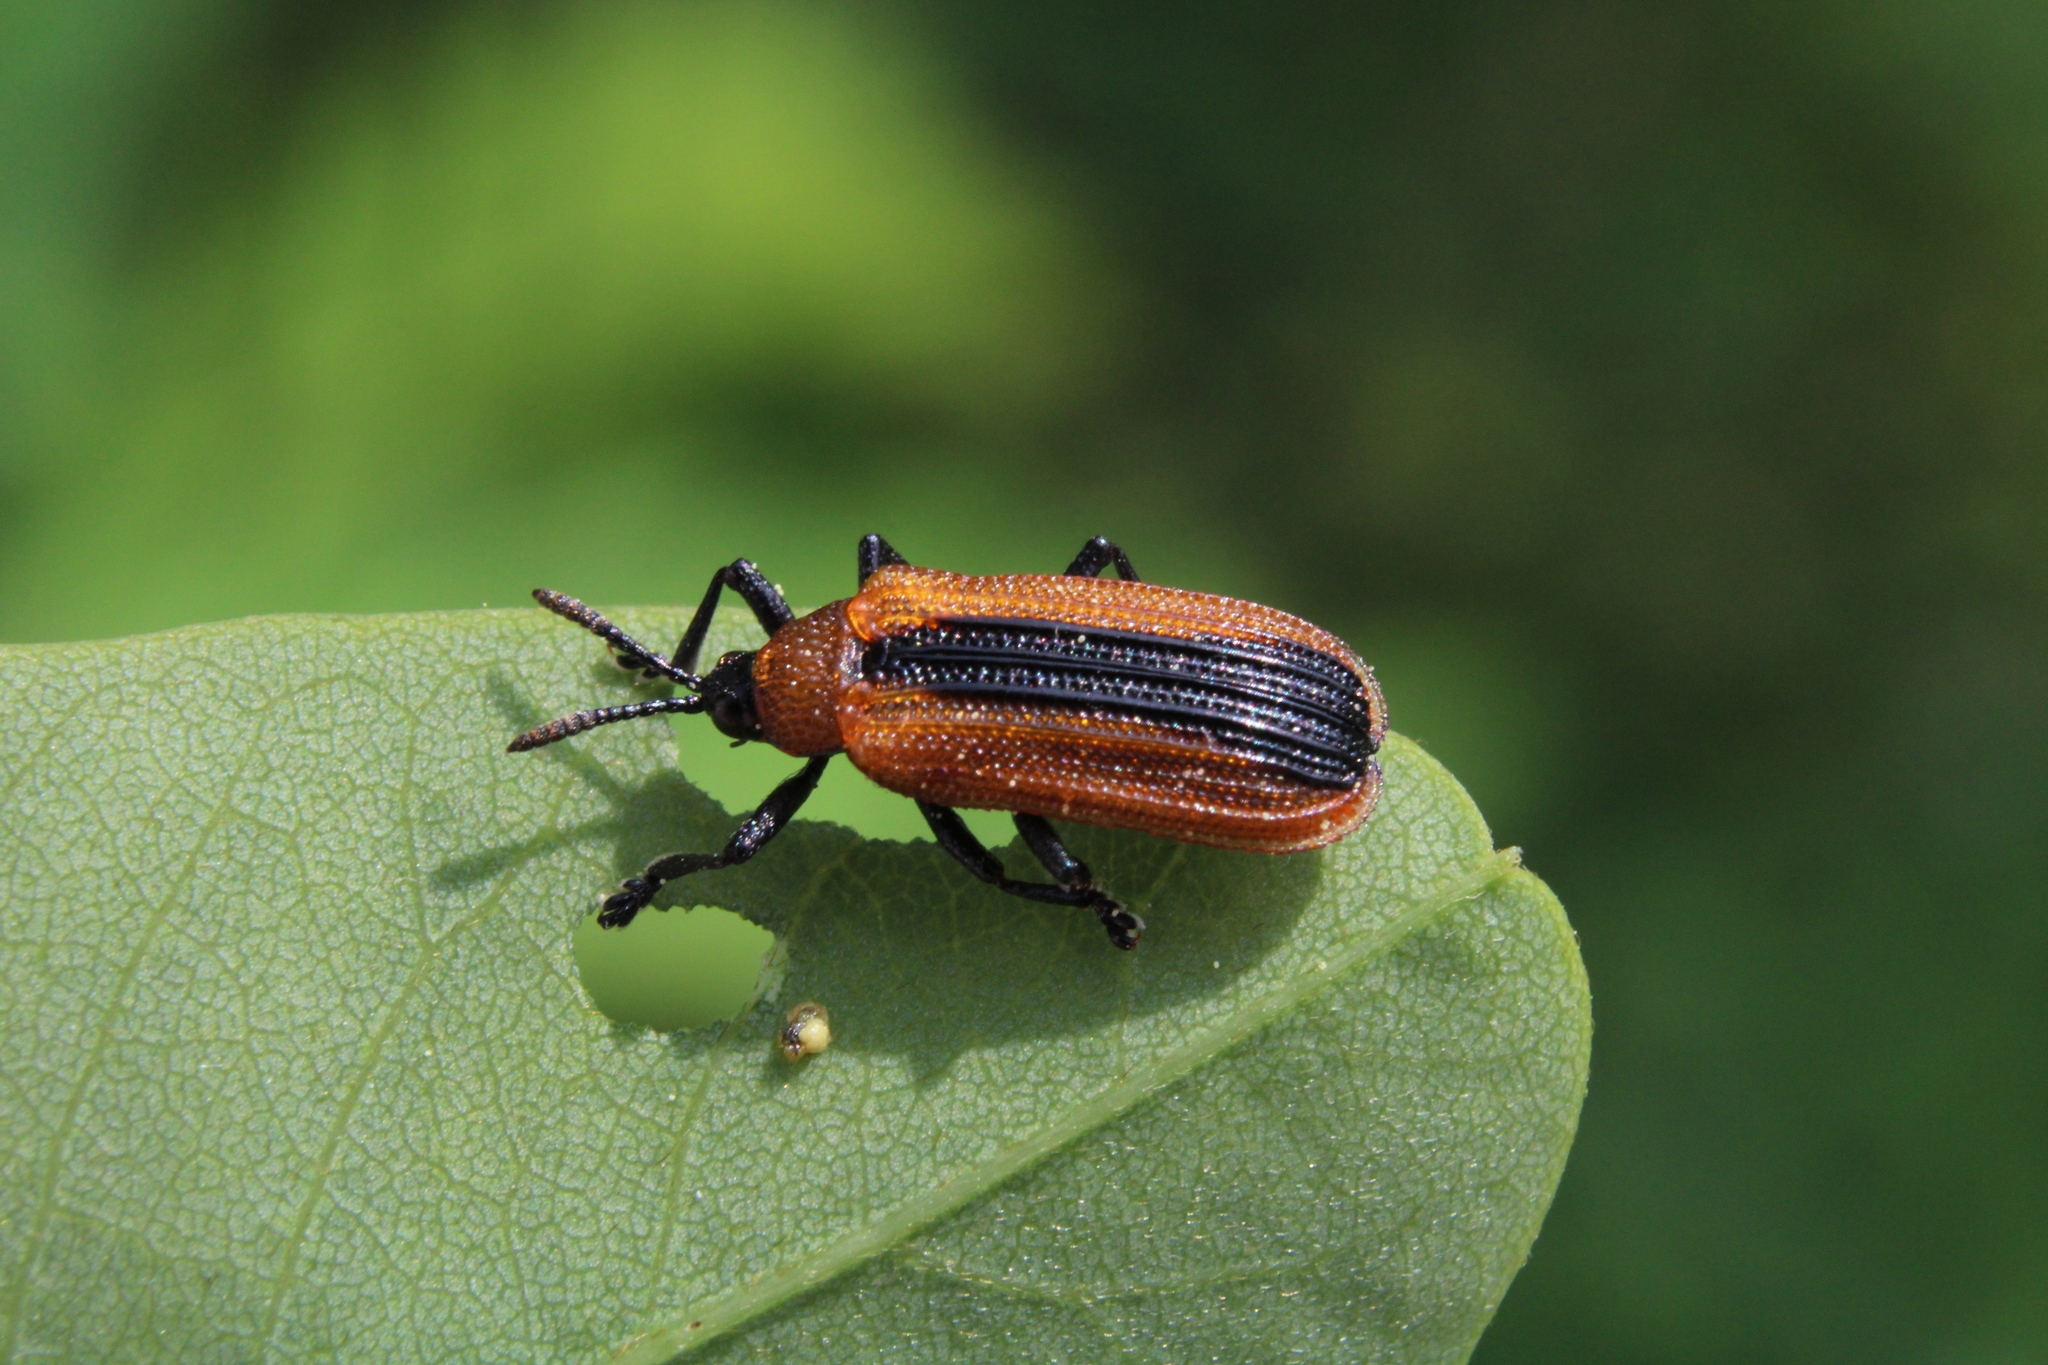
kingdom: Animalia
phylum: Arthropoda
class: Insecta
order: Coleoptera
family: Chrysomelidae
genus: Odontota
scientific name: Odontota dorsalis
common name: Locust leaf-miner beetle
